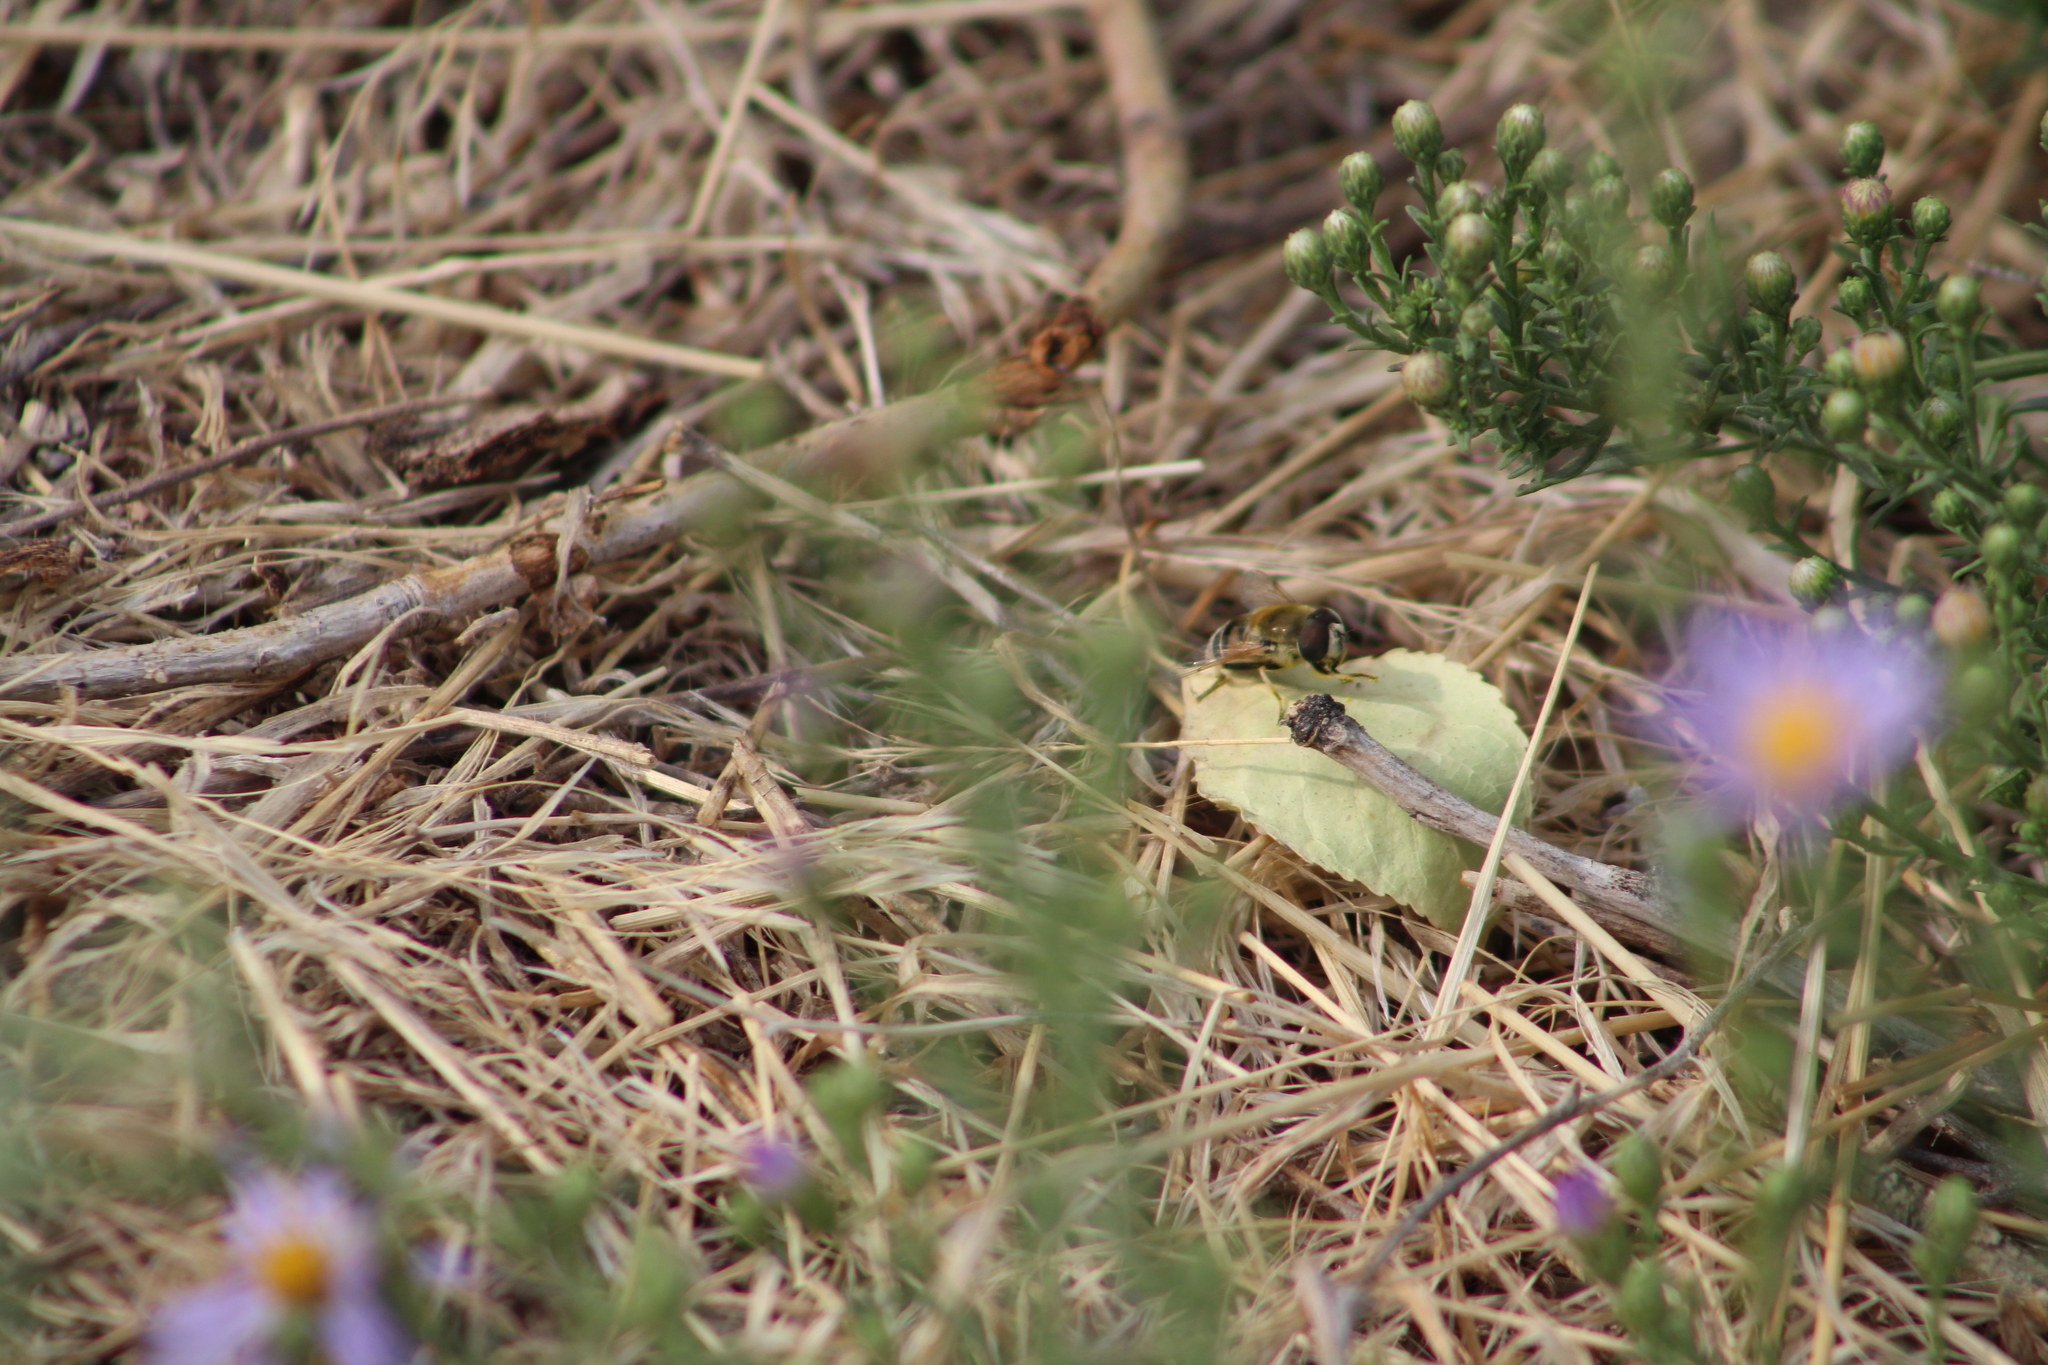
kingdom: Animalia
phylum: Arthropoda
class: Insecta
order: Diptera
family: Syrphidae
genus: Eristalis
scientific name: Eristalis stipator
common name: Yellow-shouldered drone fly
